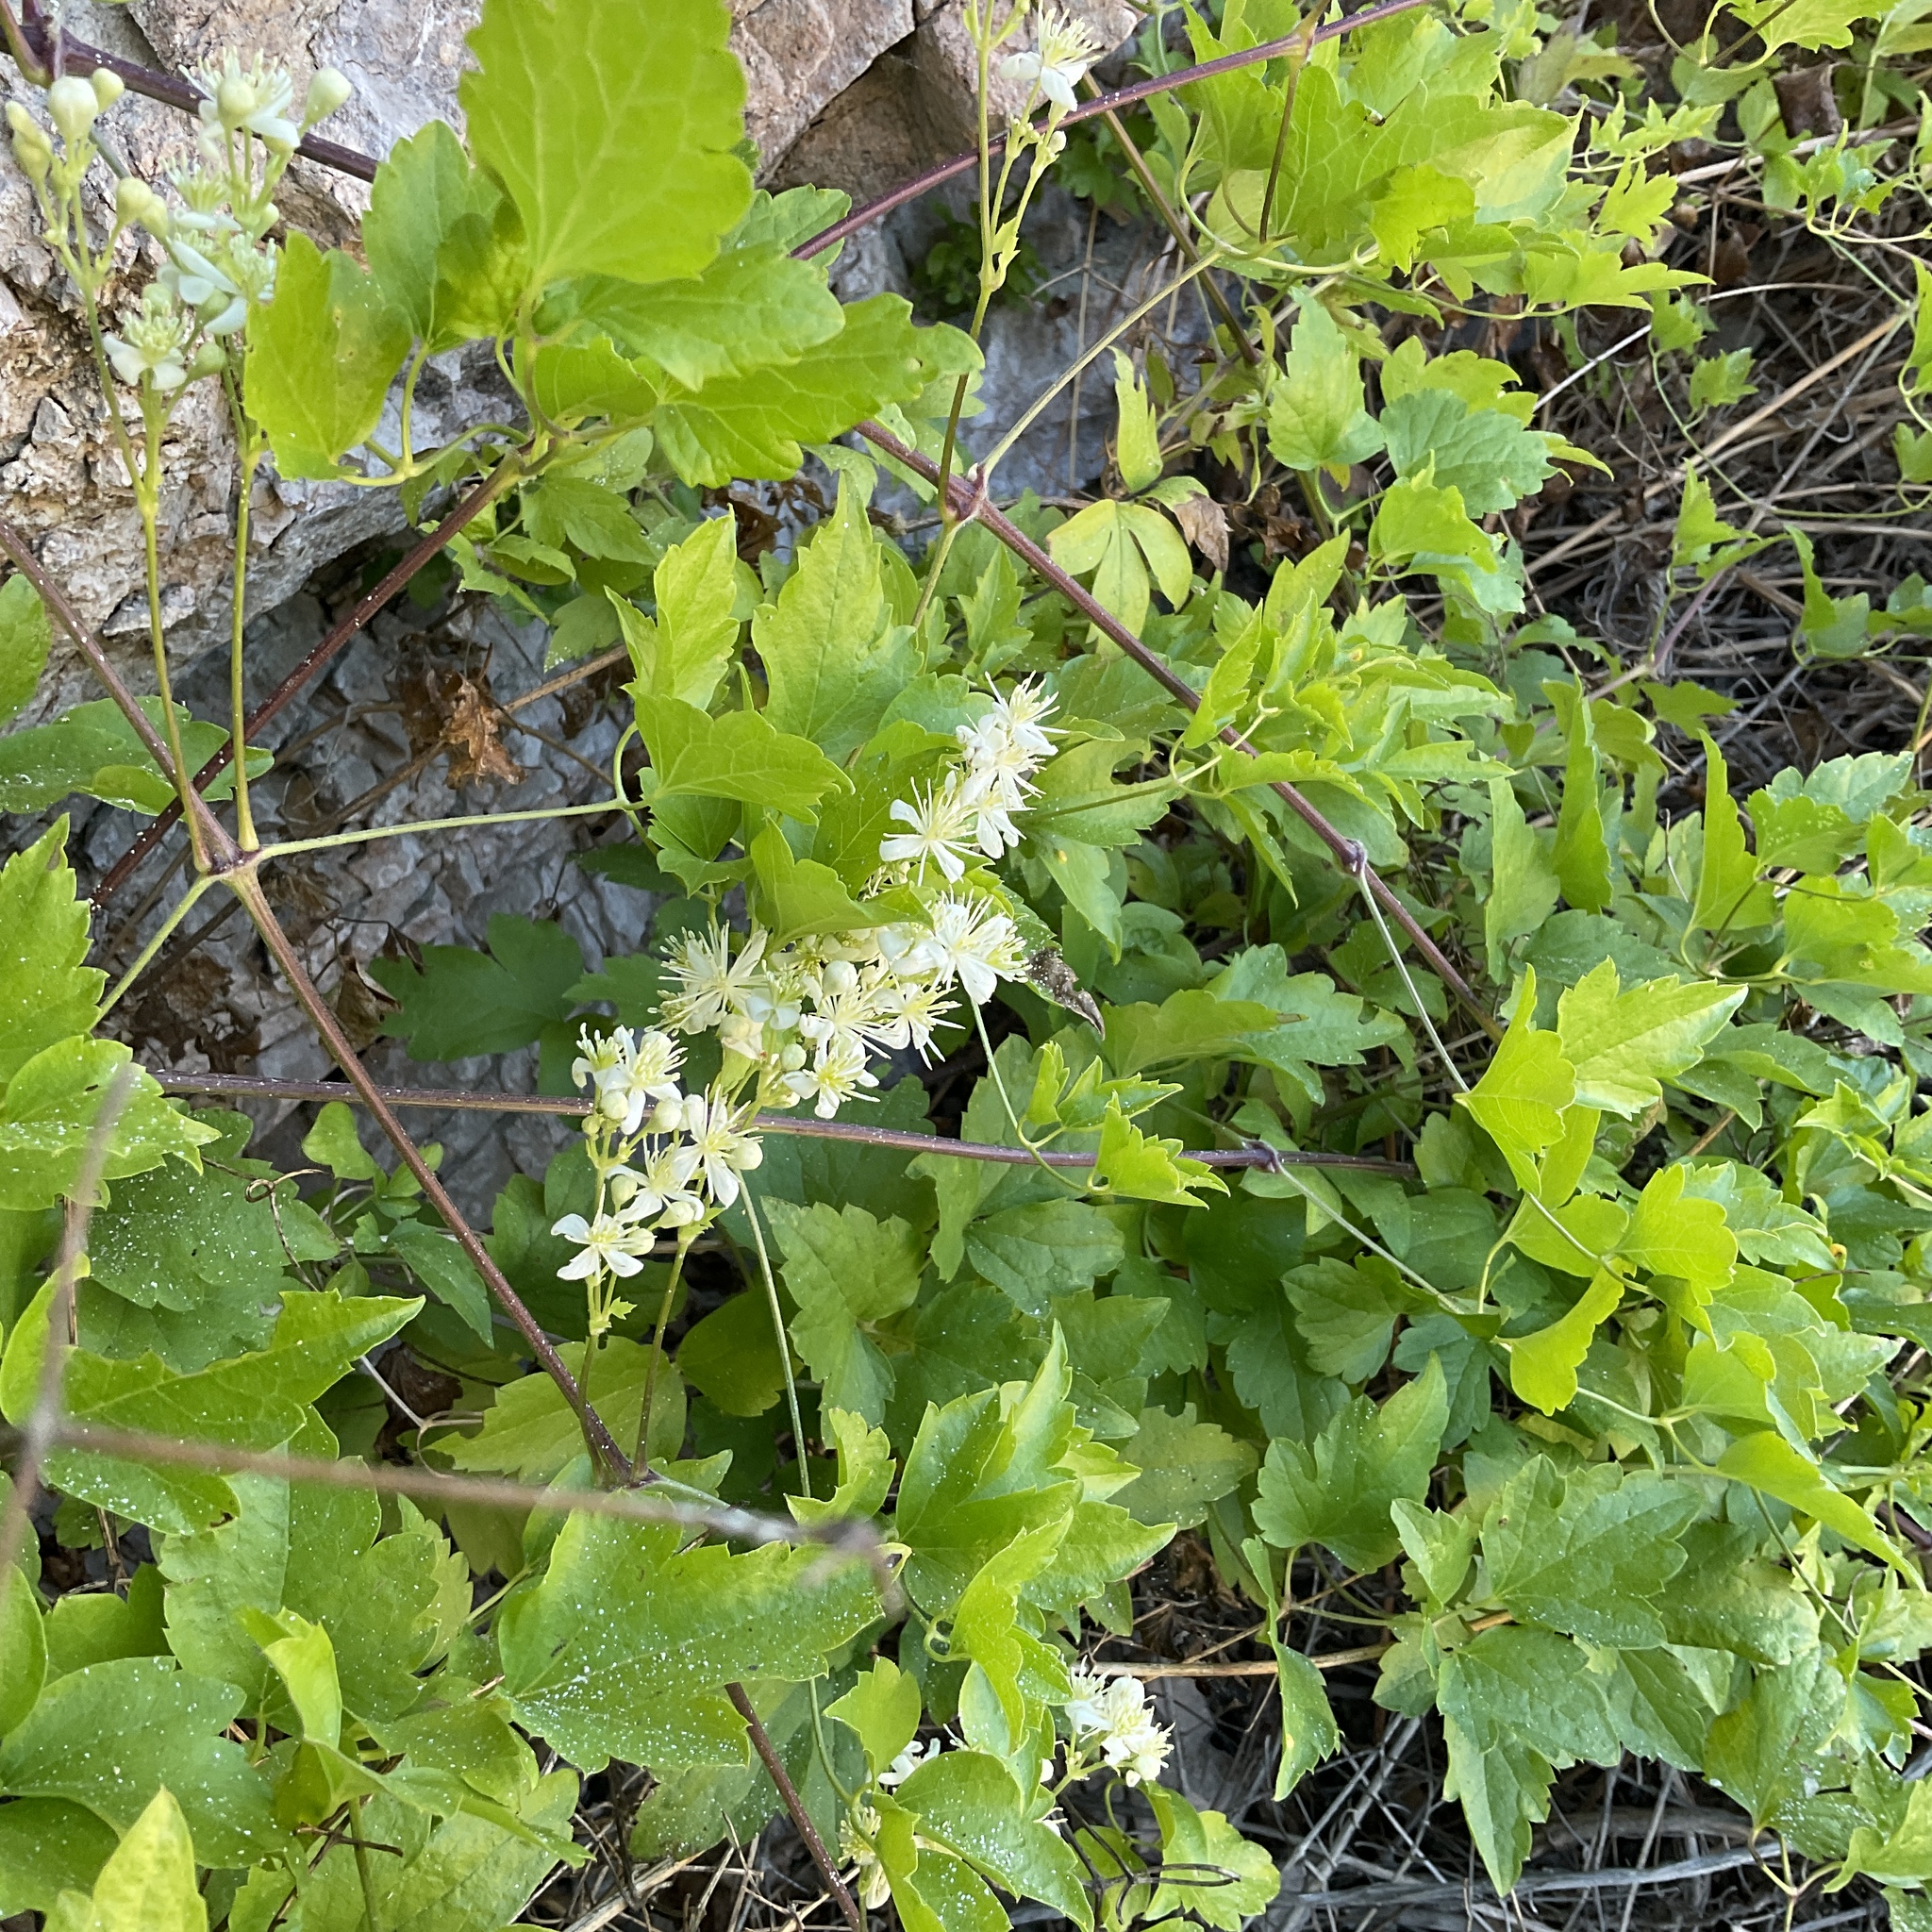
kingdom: Plantae
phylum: Tracheophyta
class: Magnoliopsida
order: Ranunculales
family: Ranunculaceae
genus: Clematis
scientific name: Clematis ligusticifolia
